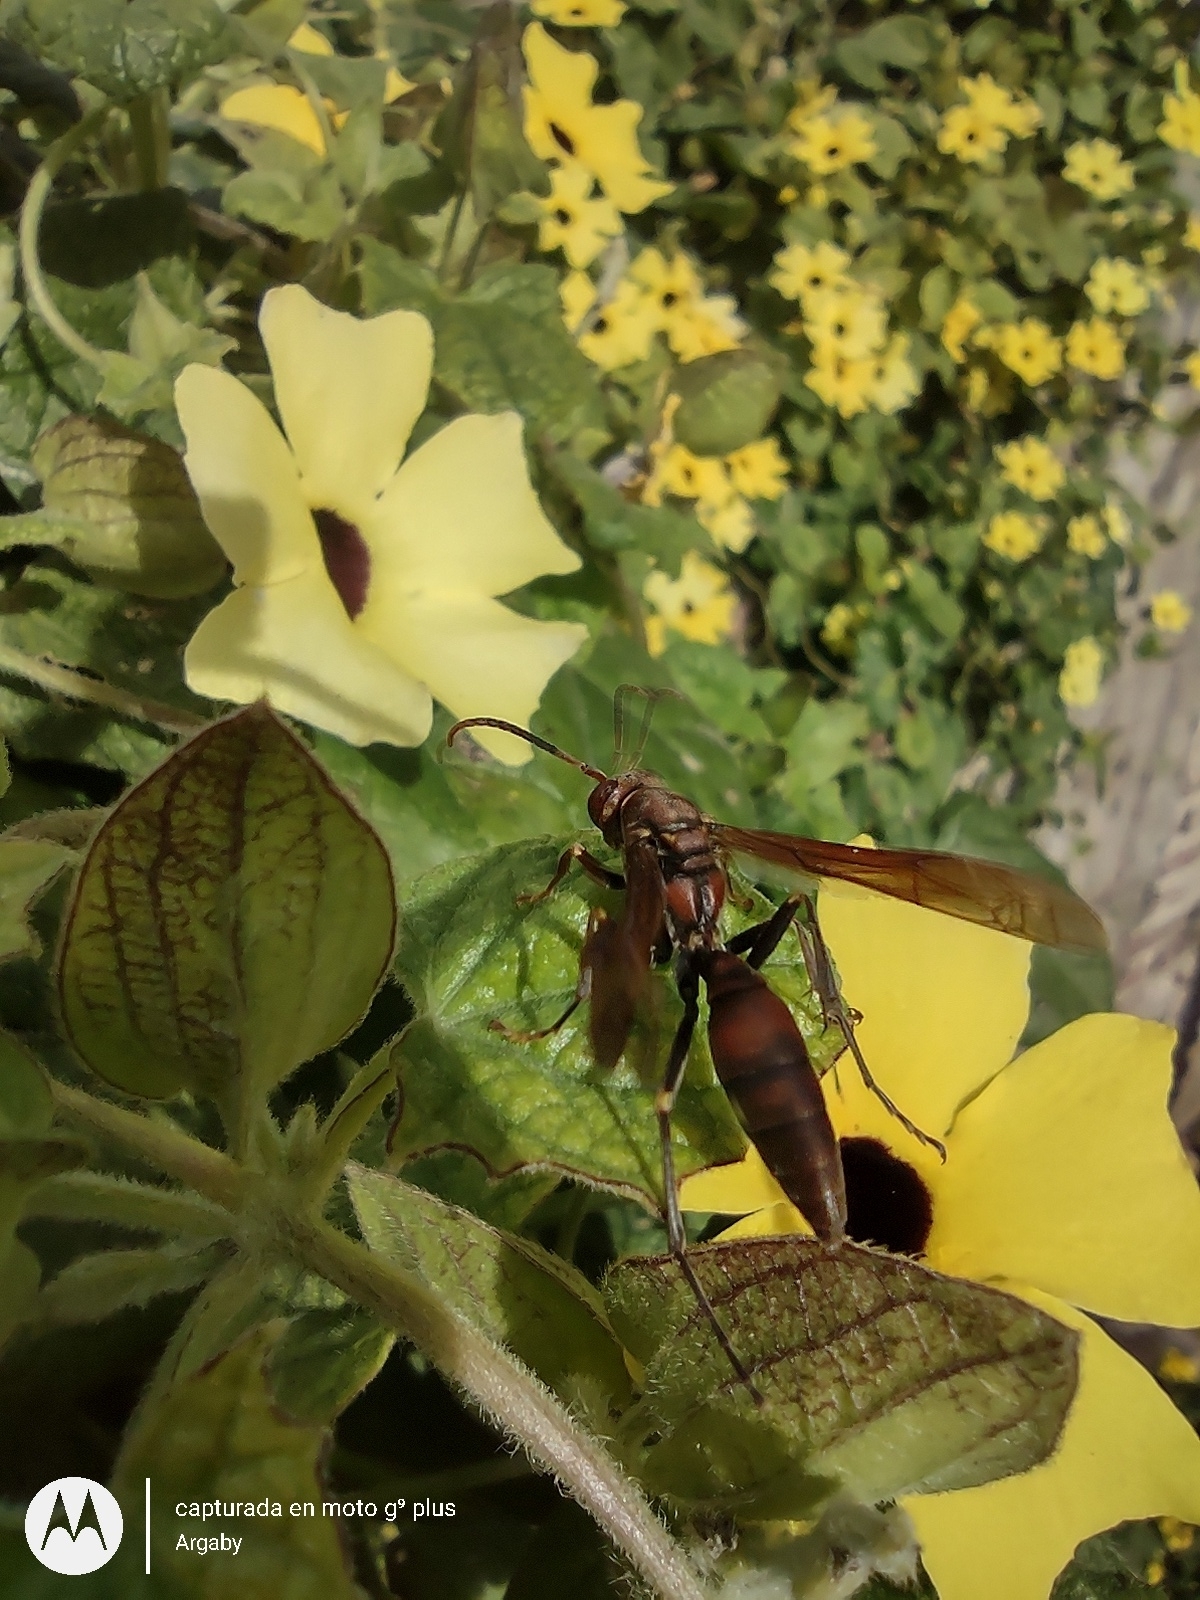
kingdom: Animalia
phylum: Arthropoda
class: Insecta
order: Hymenoptera
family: Pompilidae
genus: Aphanilopterus
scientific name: Aphanilopterus
